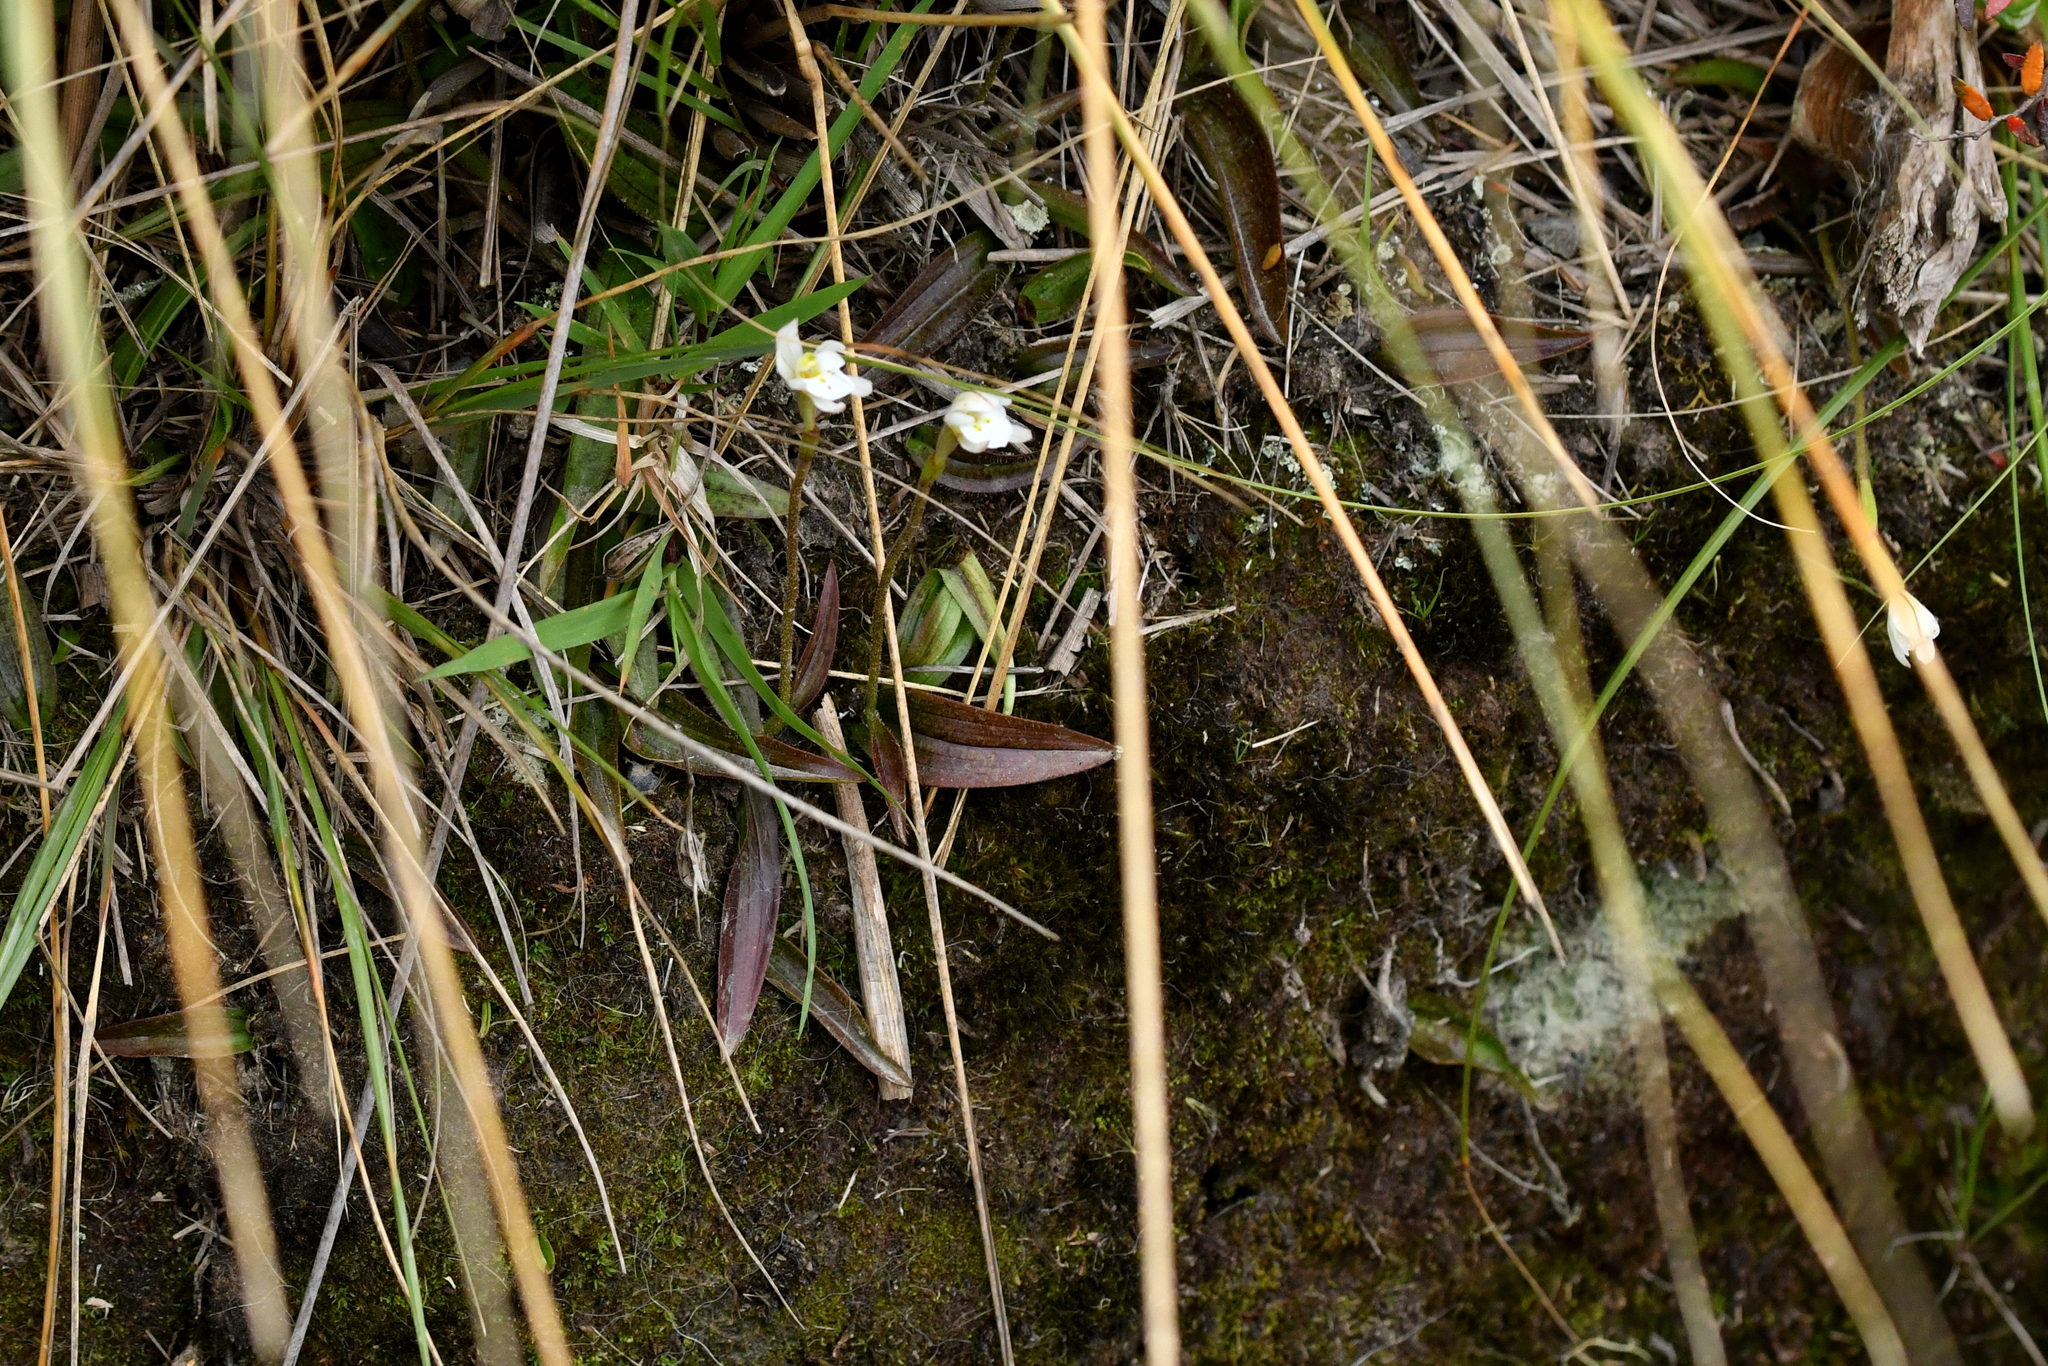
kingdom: Plantae
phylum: Tracheophyta
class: Liliopsida
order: Asparagales
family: Orchidaceae
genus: Aporostylis
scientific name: Aporostylis bifolia
